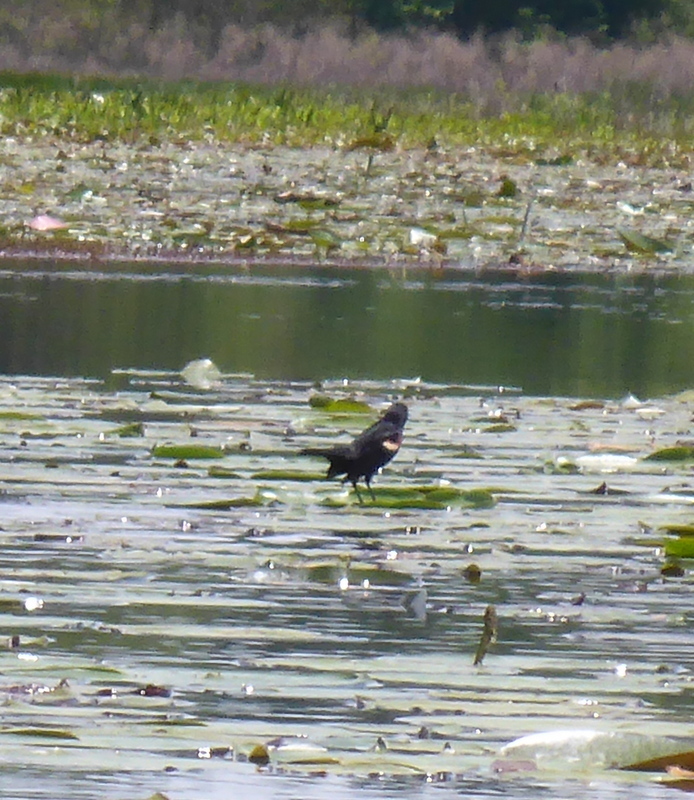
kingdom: Animalia
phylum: Chordata
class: Aves
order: Passeriformes
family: Icteridae
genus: Agelaius
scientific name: Agelaius phoeniceus
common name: Red-winged blackbird
